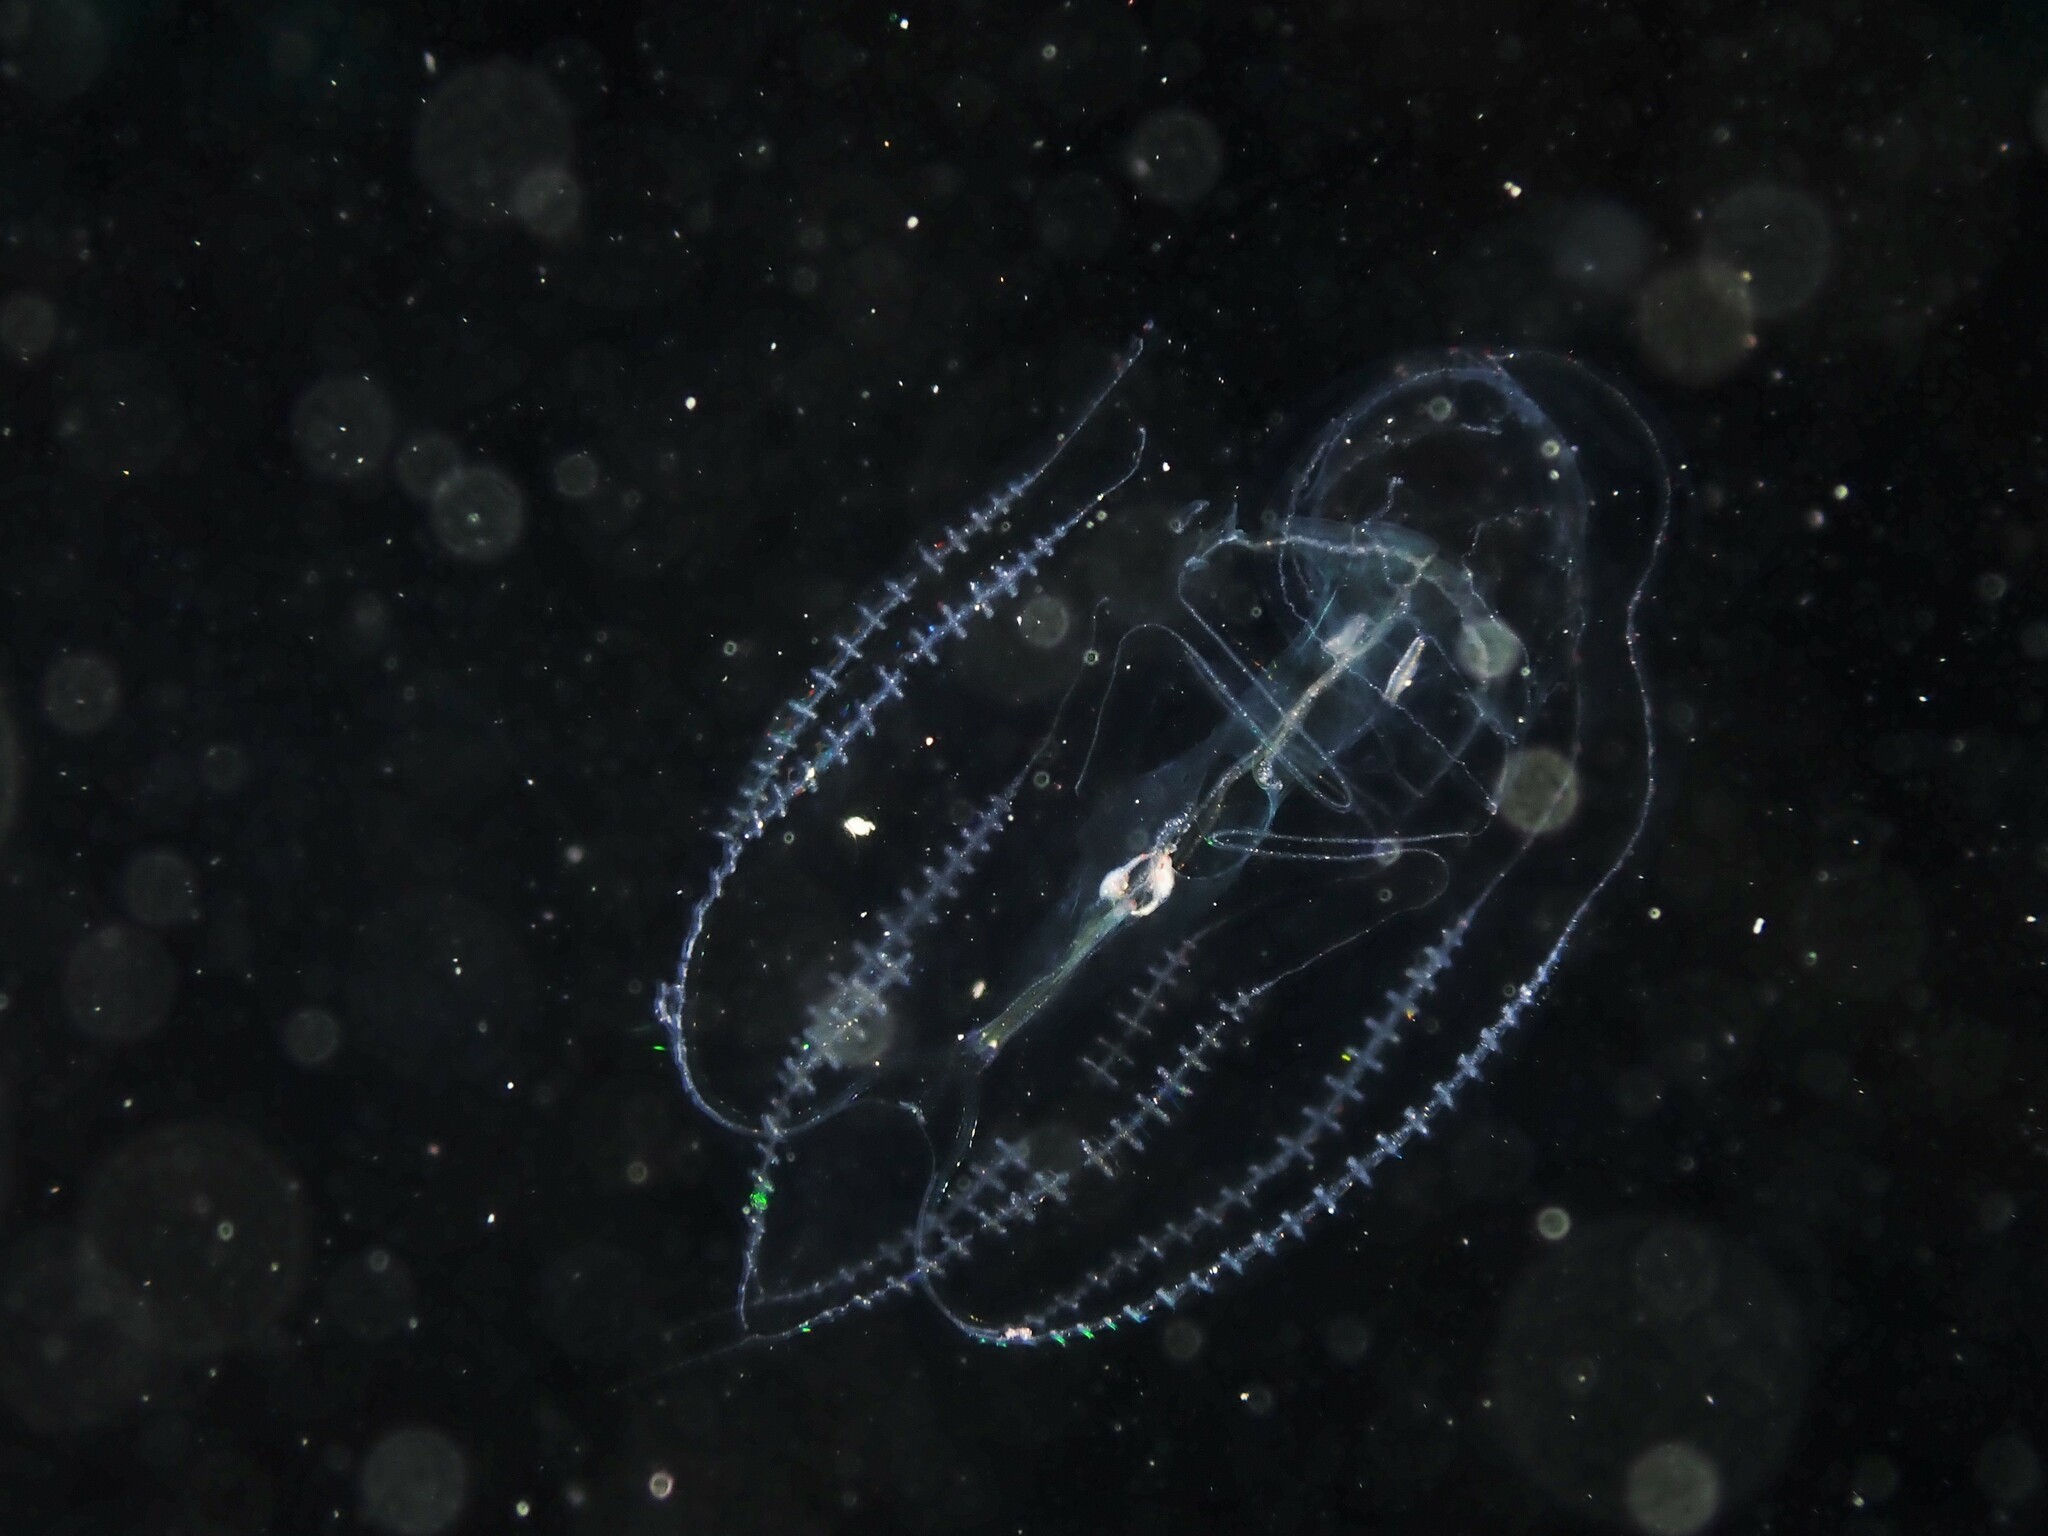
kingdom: Animalia
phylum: Ctenophora
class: Tentaculata
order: Lobata
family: Eurhamphaeidae
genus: Eurhamphaea
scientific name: Eurhamphaea vexilligera
